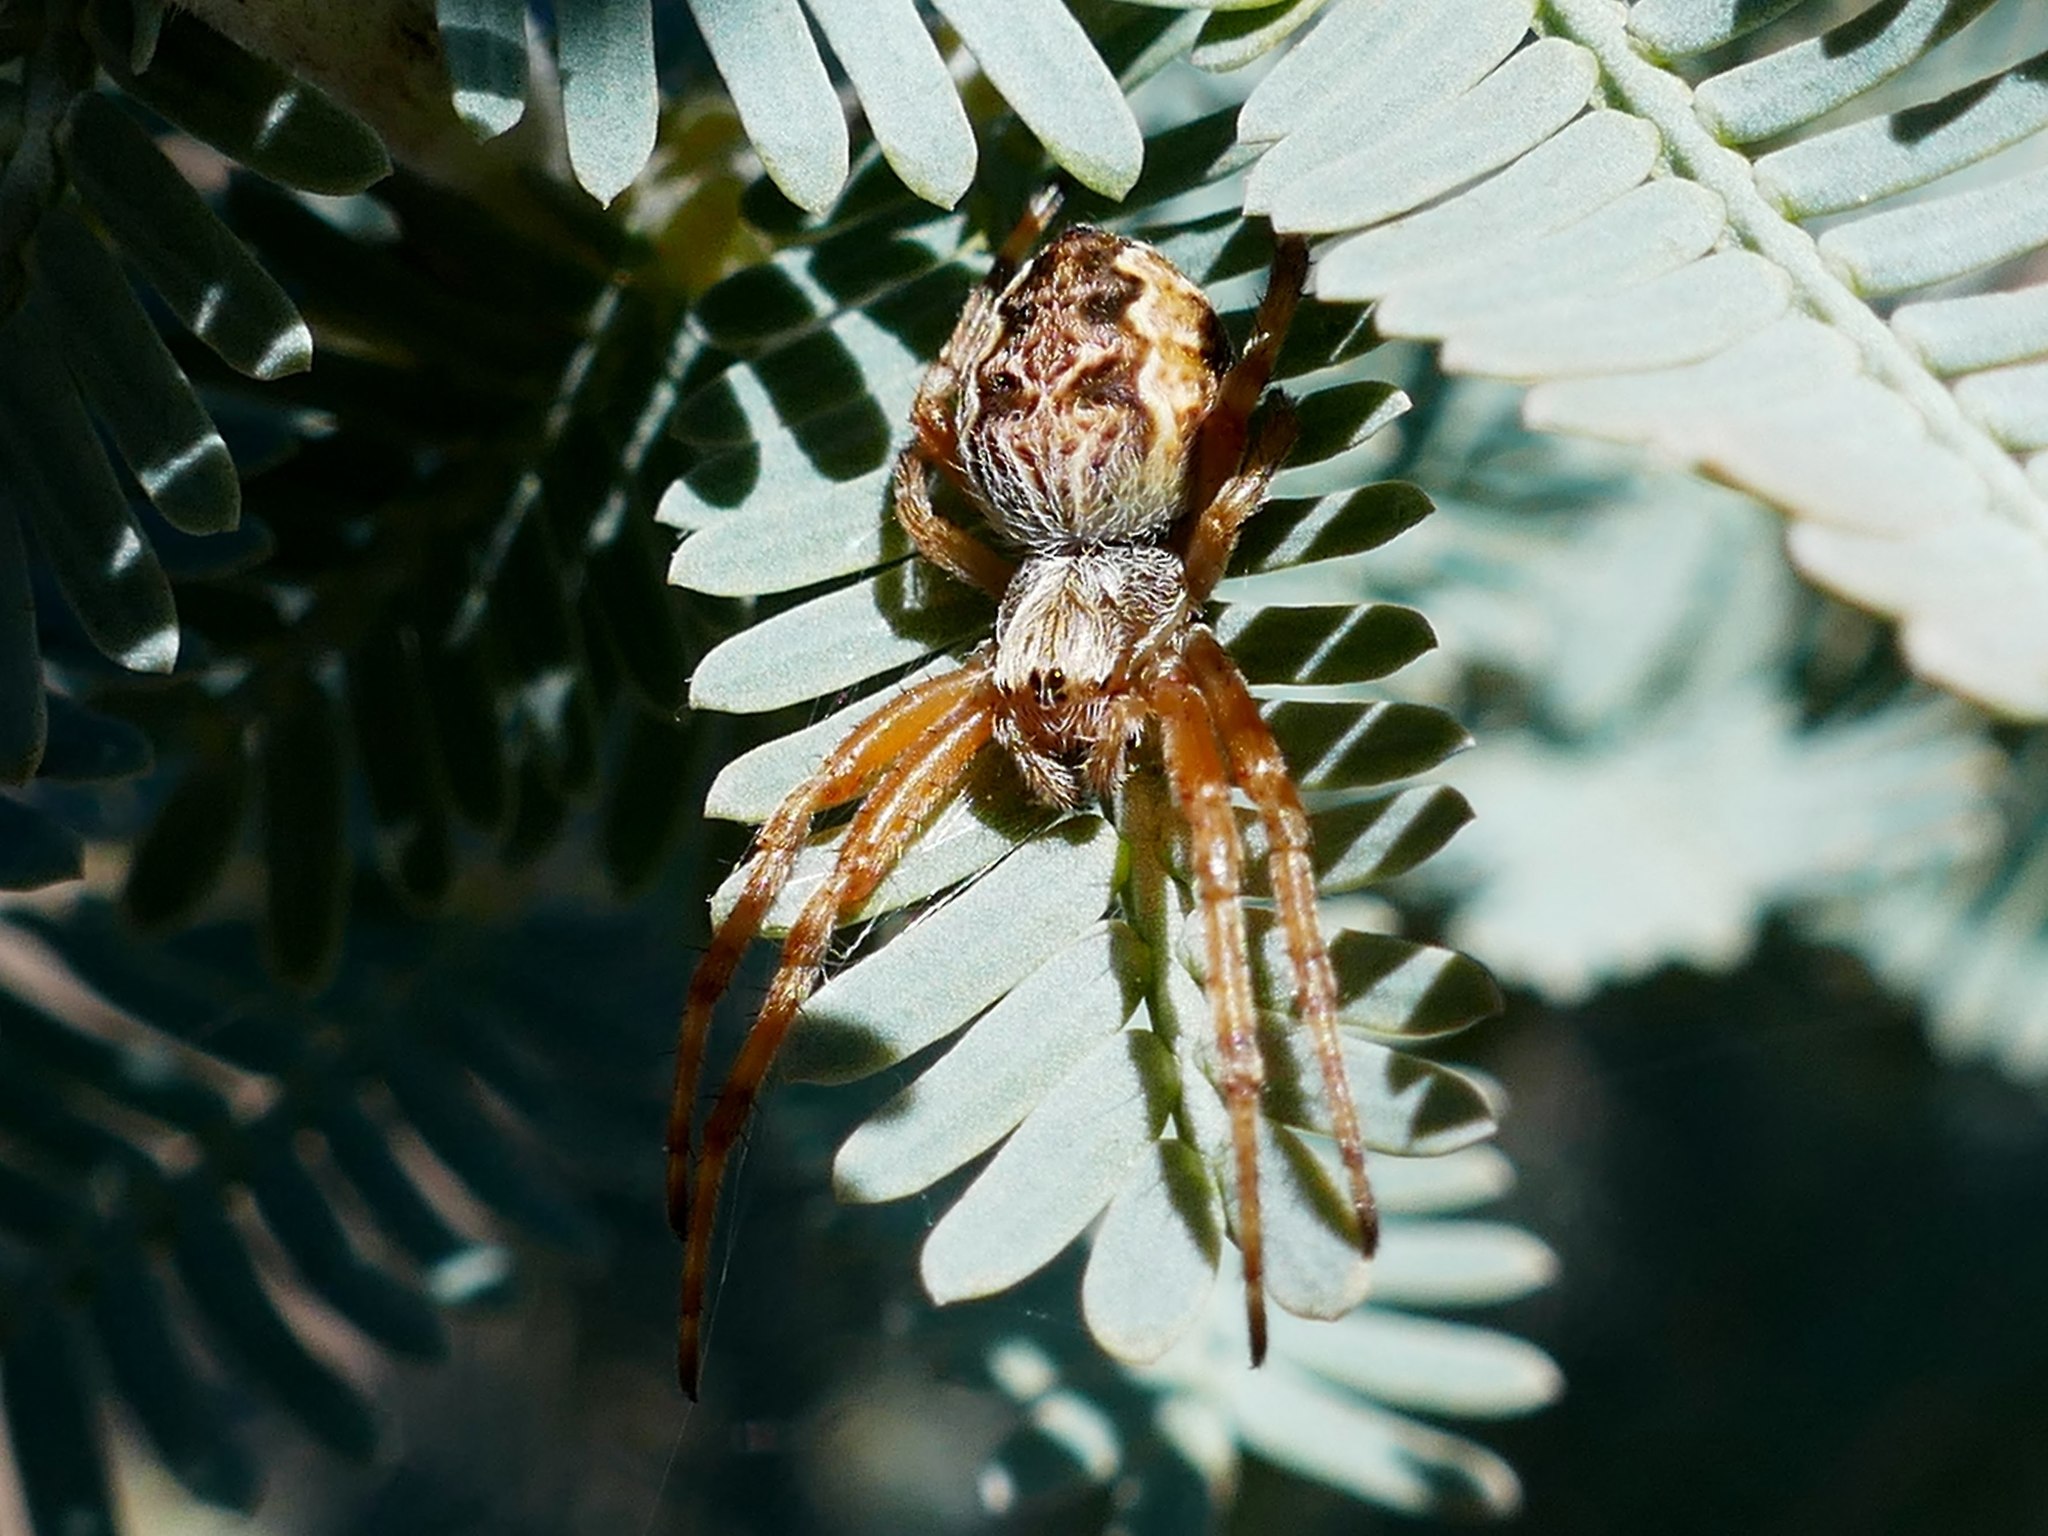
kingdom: Animalia
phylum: Arthropoda
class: Arachnida
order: Araneae
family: Araneidae
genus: Salsa
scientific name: Salsa fuliginata
